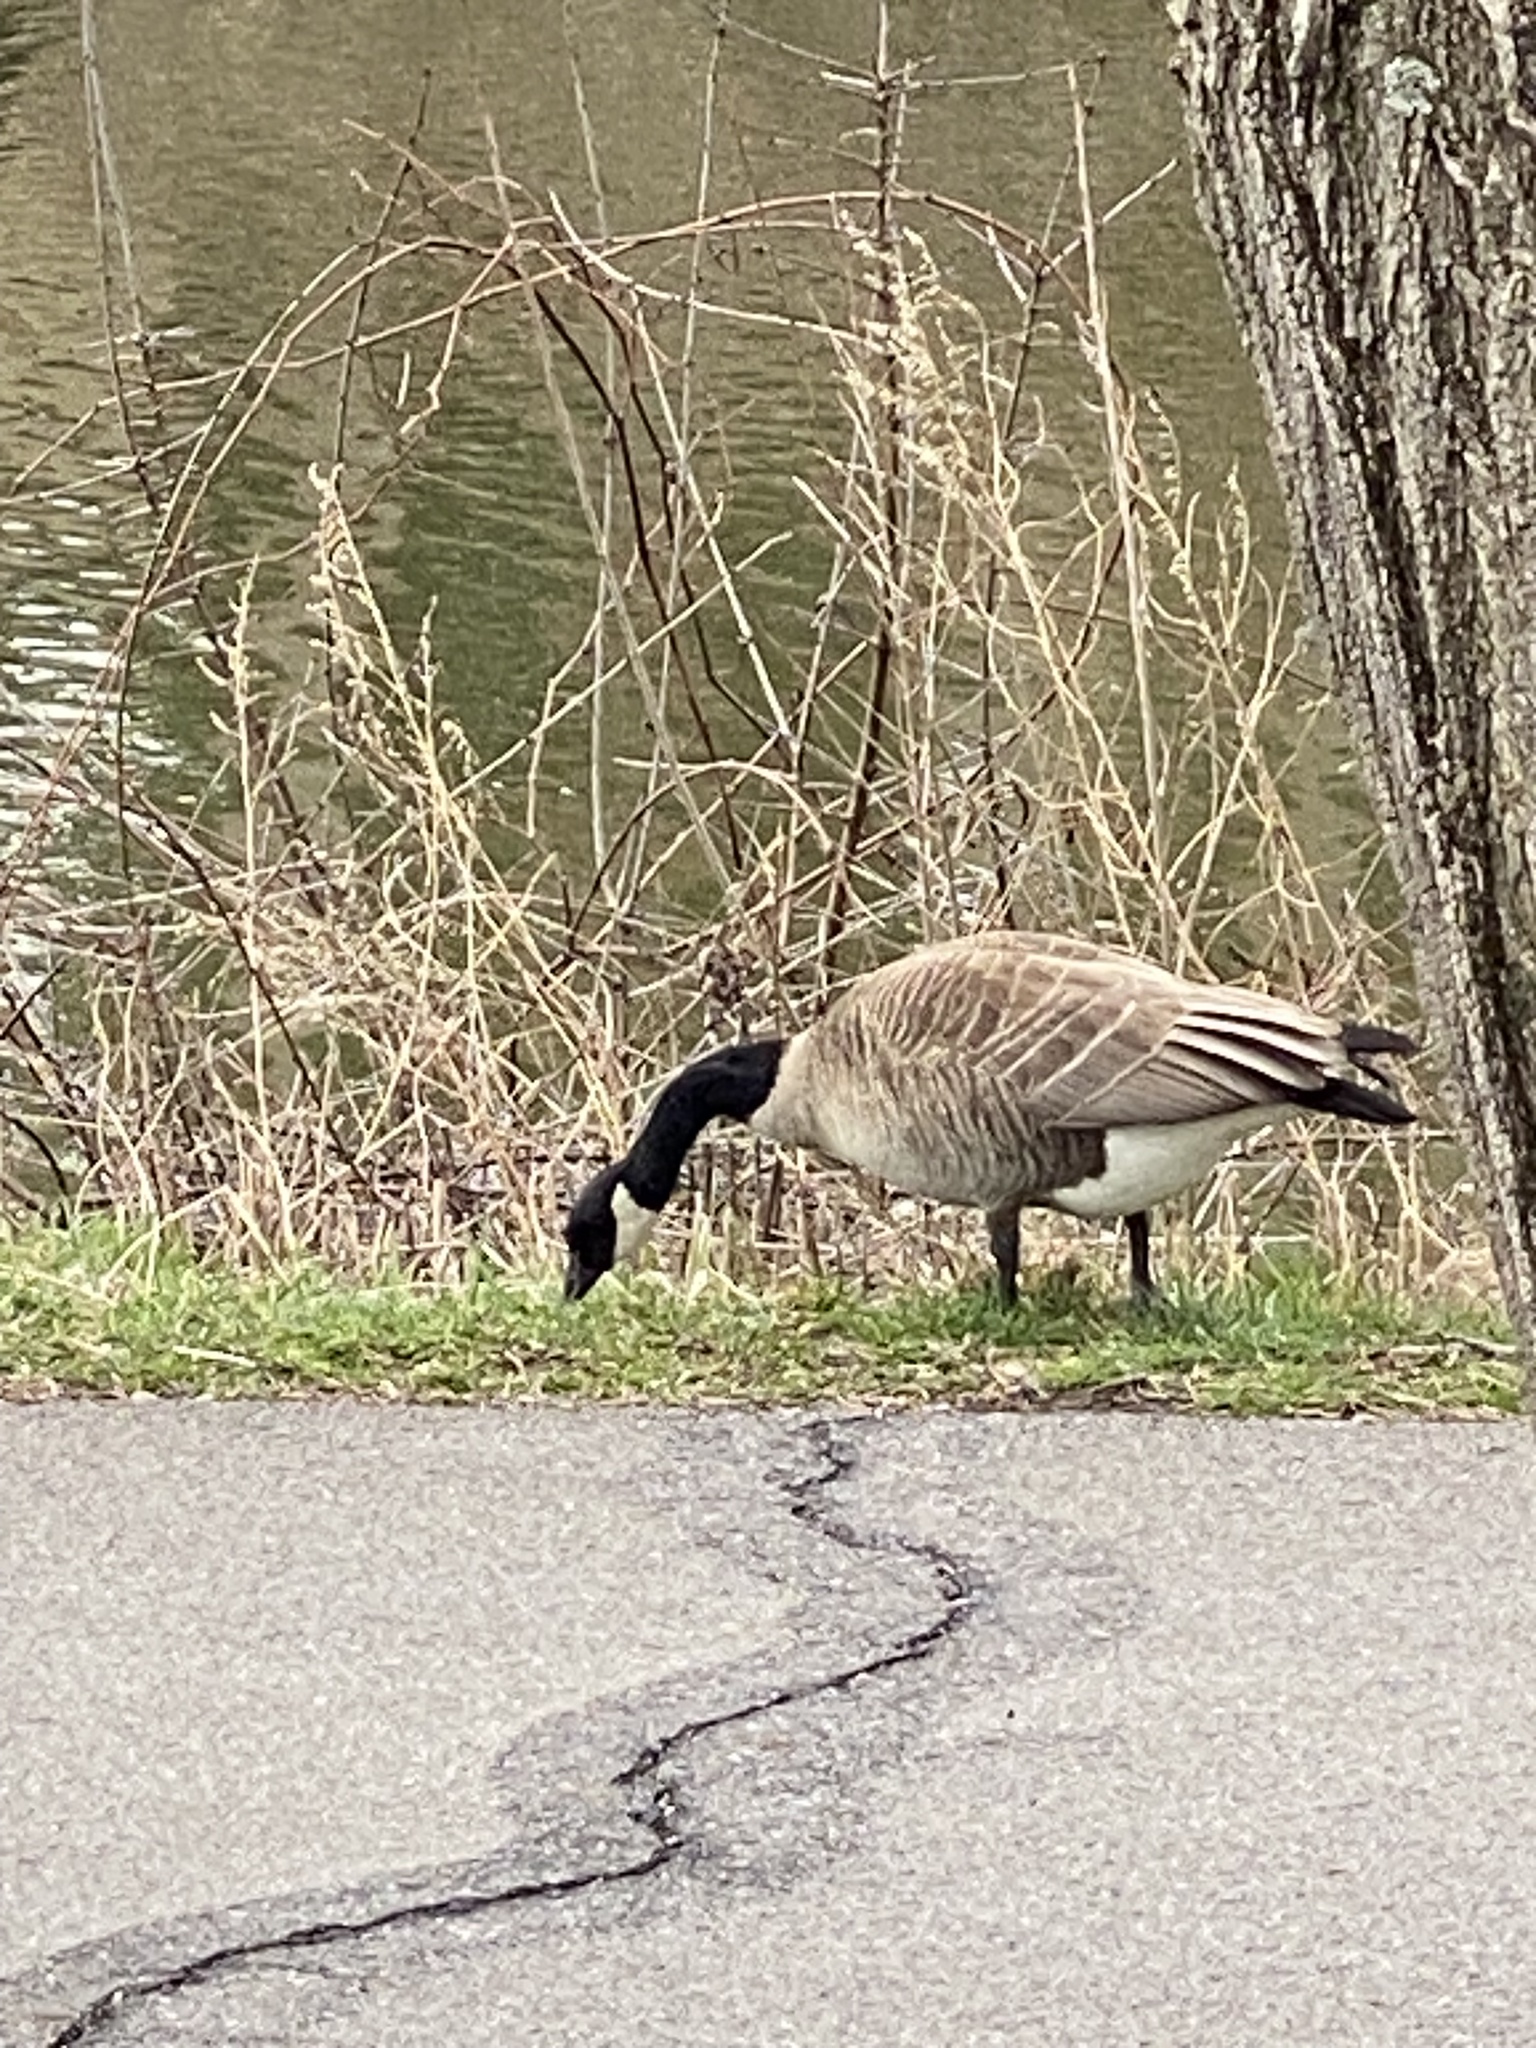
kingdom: Animalia
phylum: Chordata
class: Aves
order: Anseriformes
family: Anatidae
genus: Branta
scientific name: Branta canadensis
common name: Canada goose
